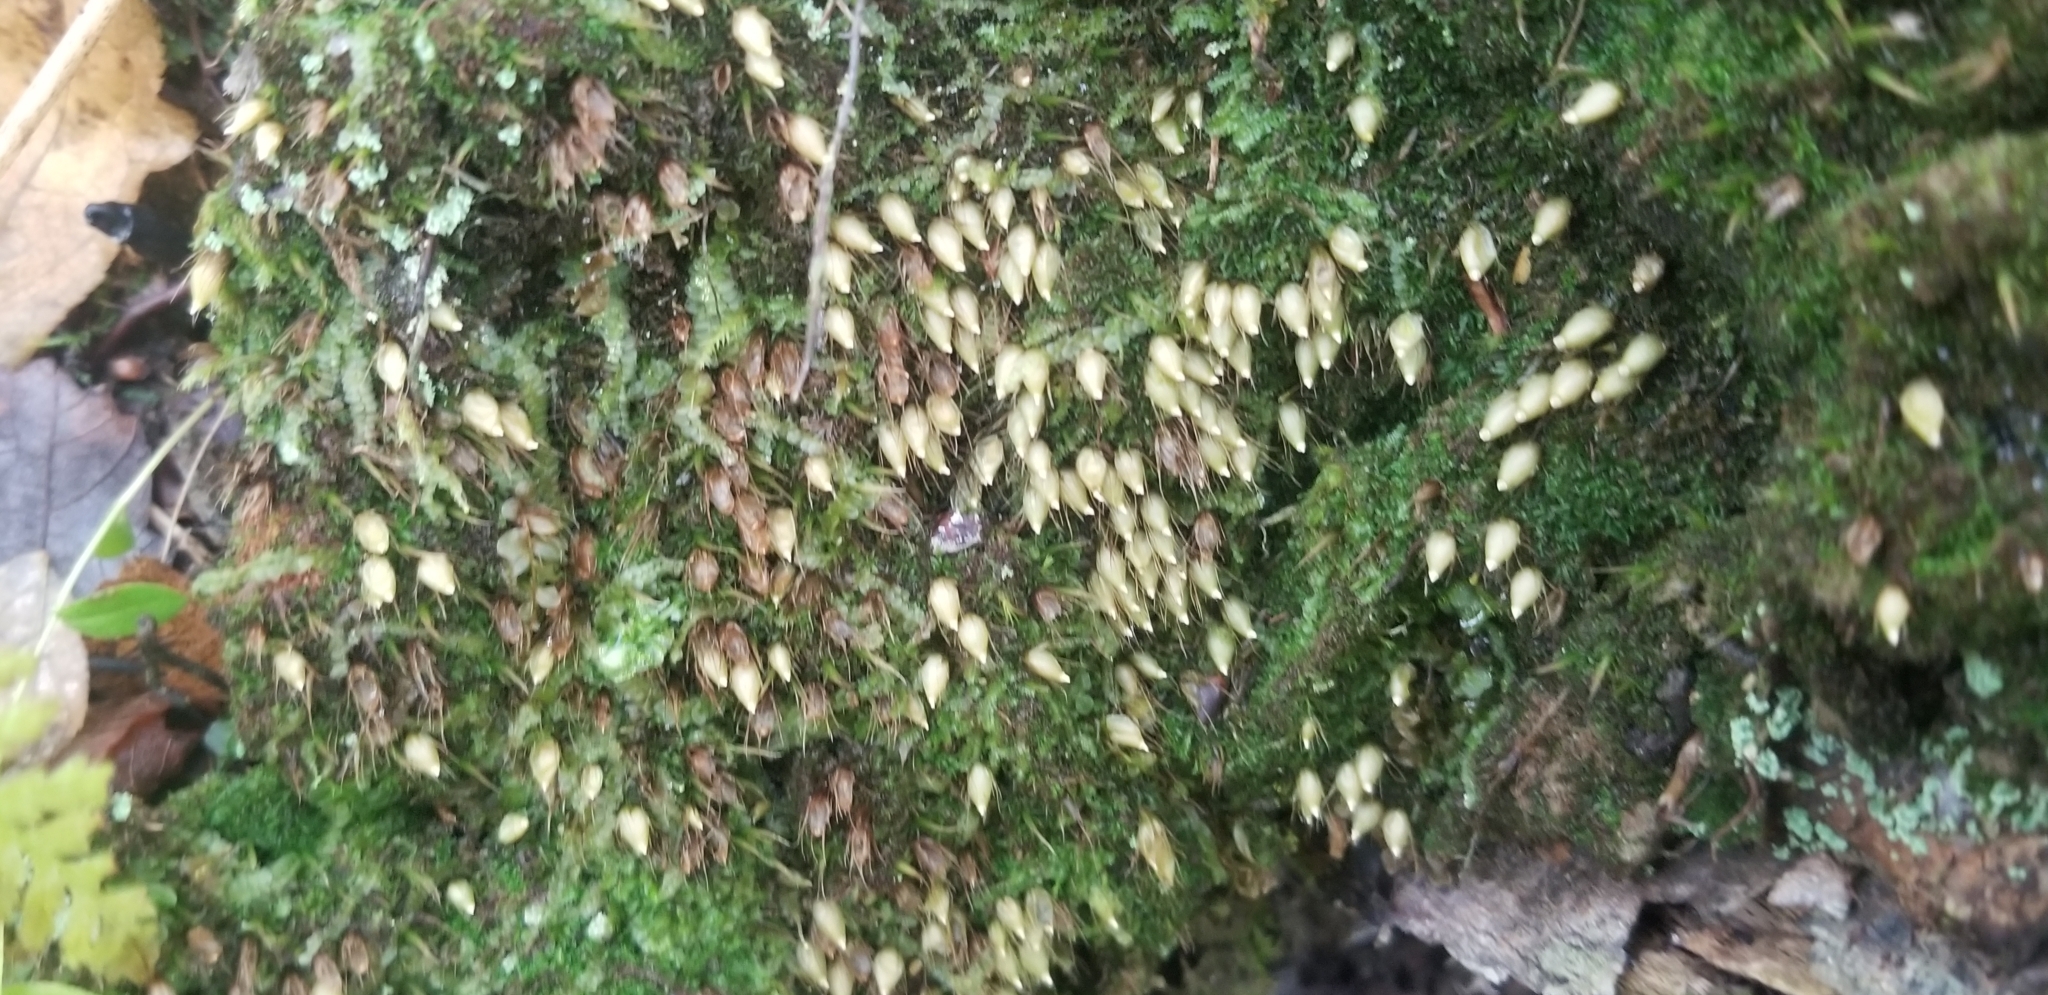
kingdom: Plantae
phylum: Bryophyta
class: Bryopsida
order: Diphysciales
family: Diphysciaceae
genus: Diphyscium
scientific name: Diphyscium foliosum
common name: Nut moss
